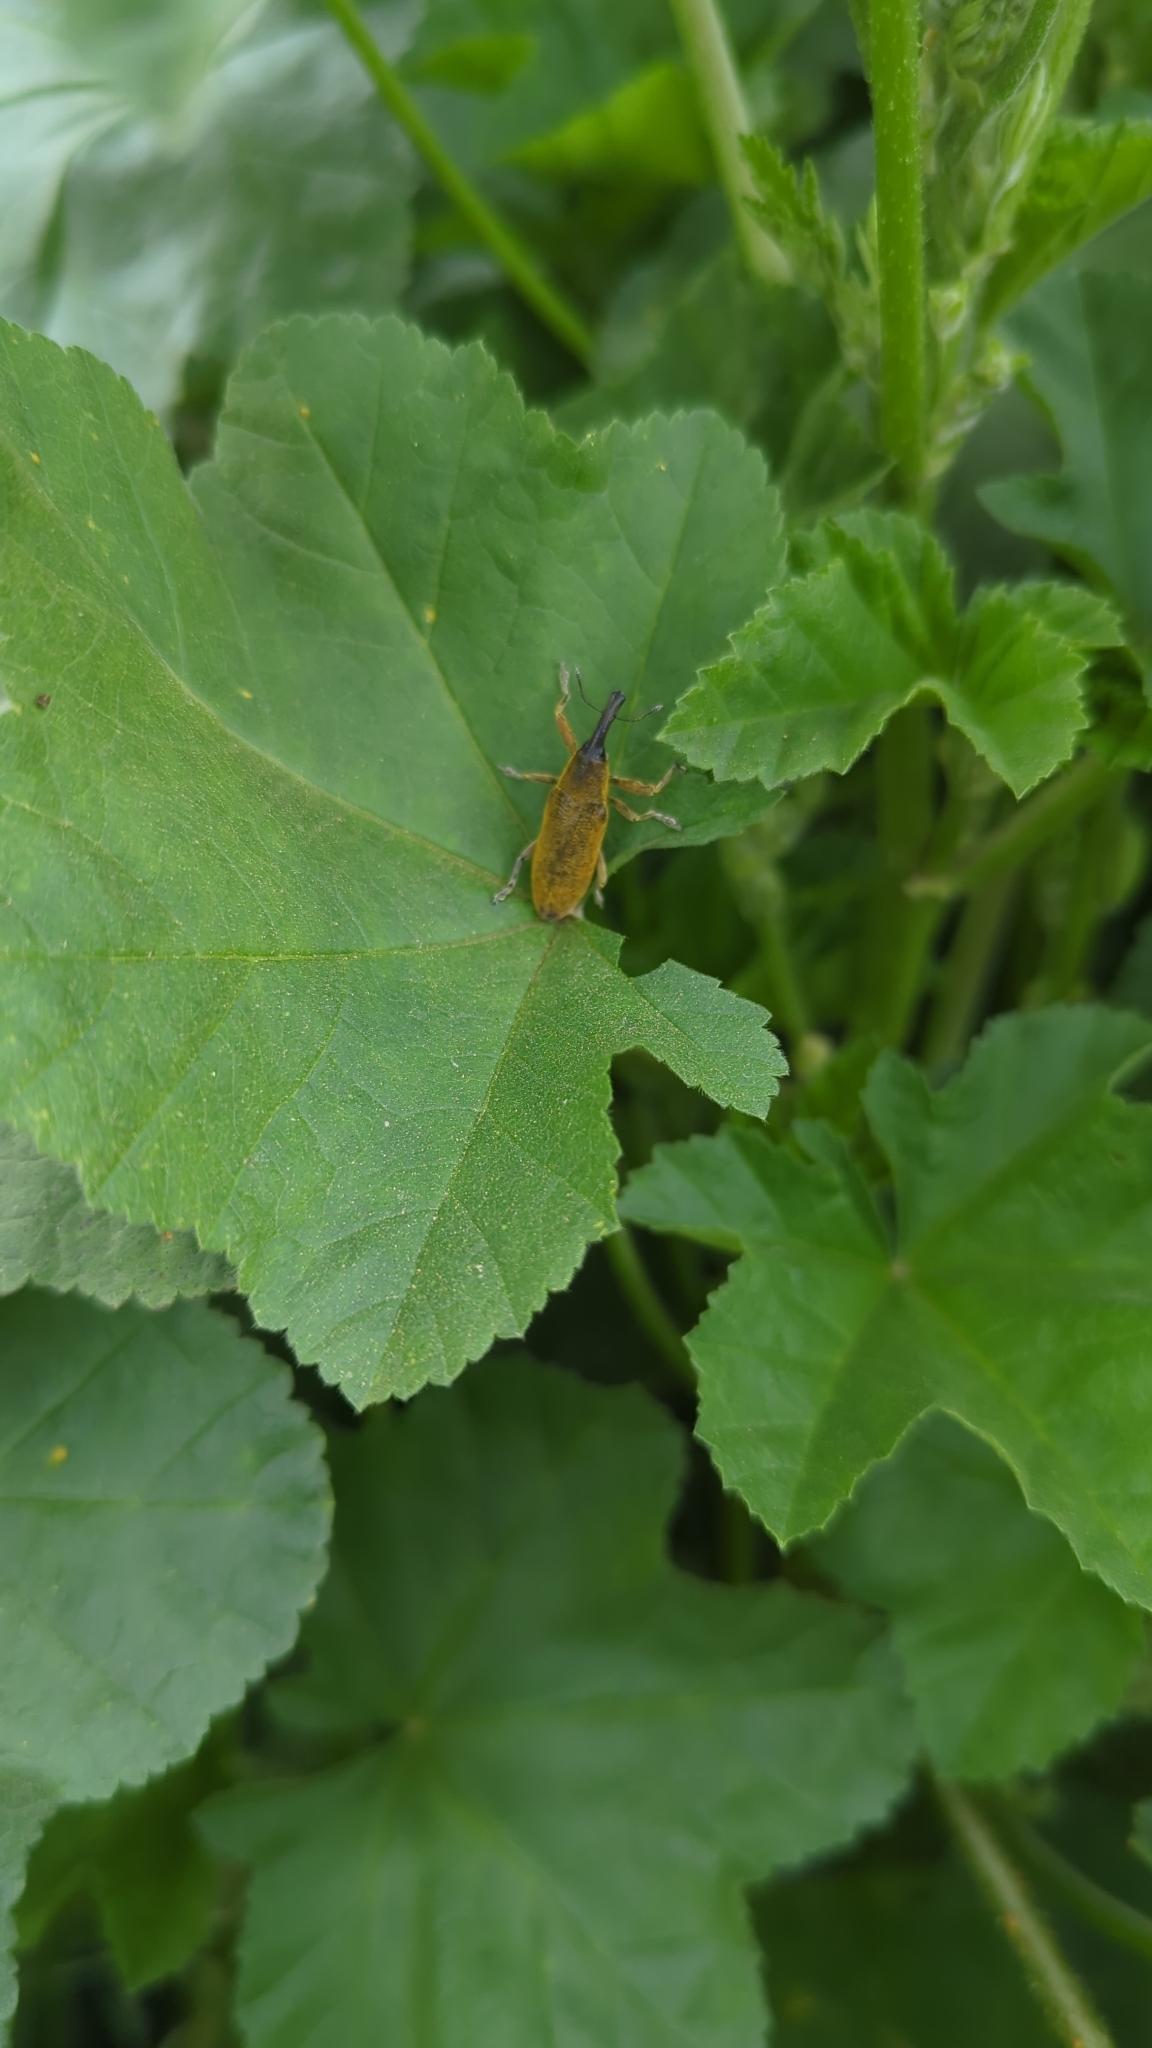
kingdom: Animalia
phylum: Arthropoda
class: Insecta
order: Coleoptera
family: Curculionidae
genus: Lixus
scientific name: Lixus pulverulentus
